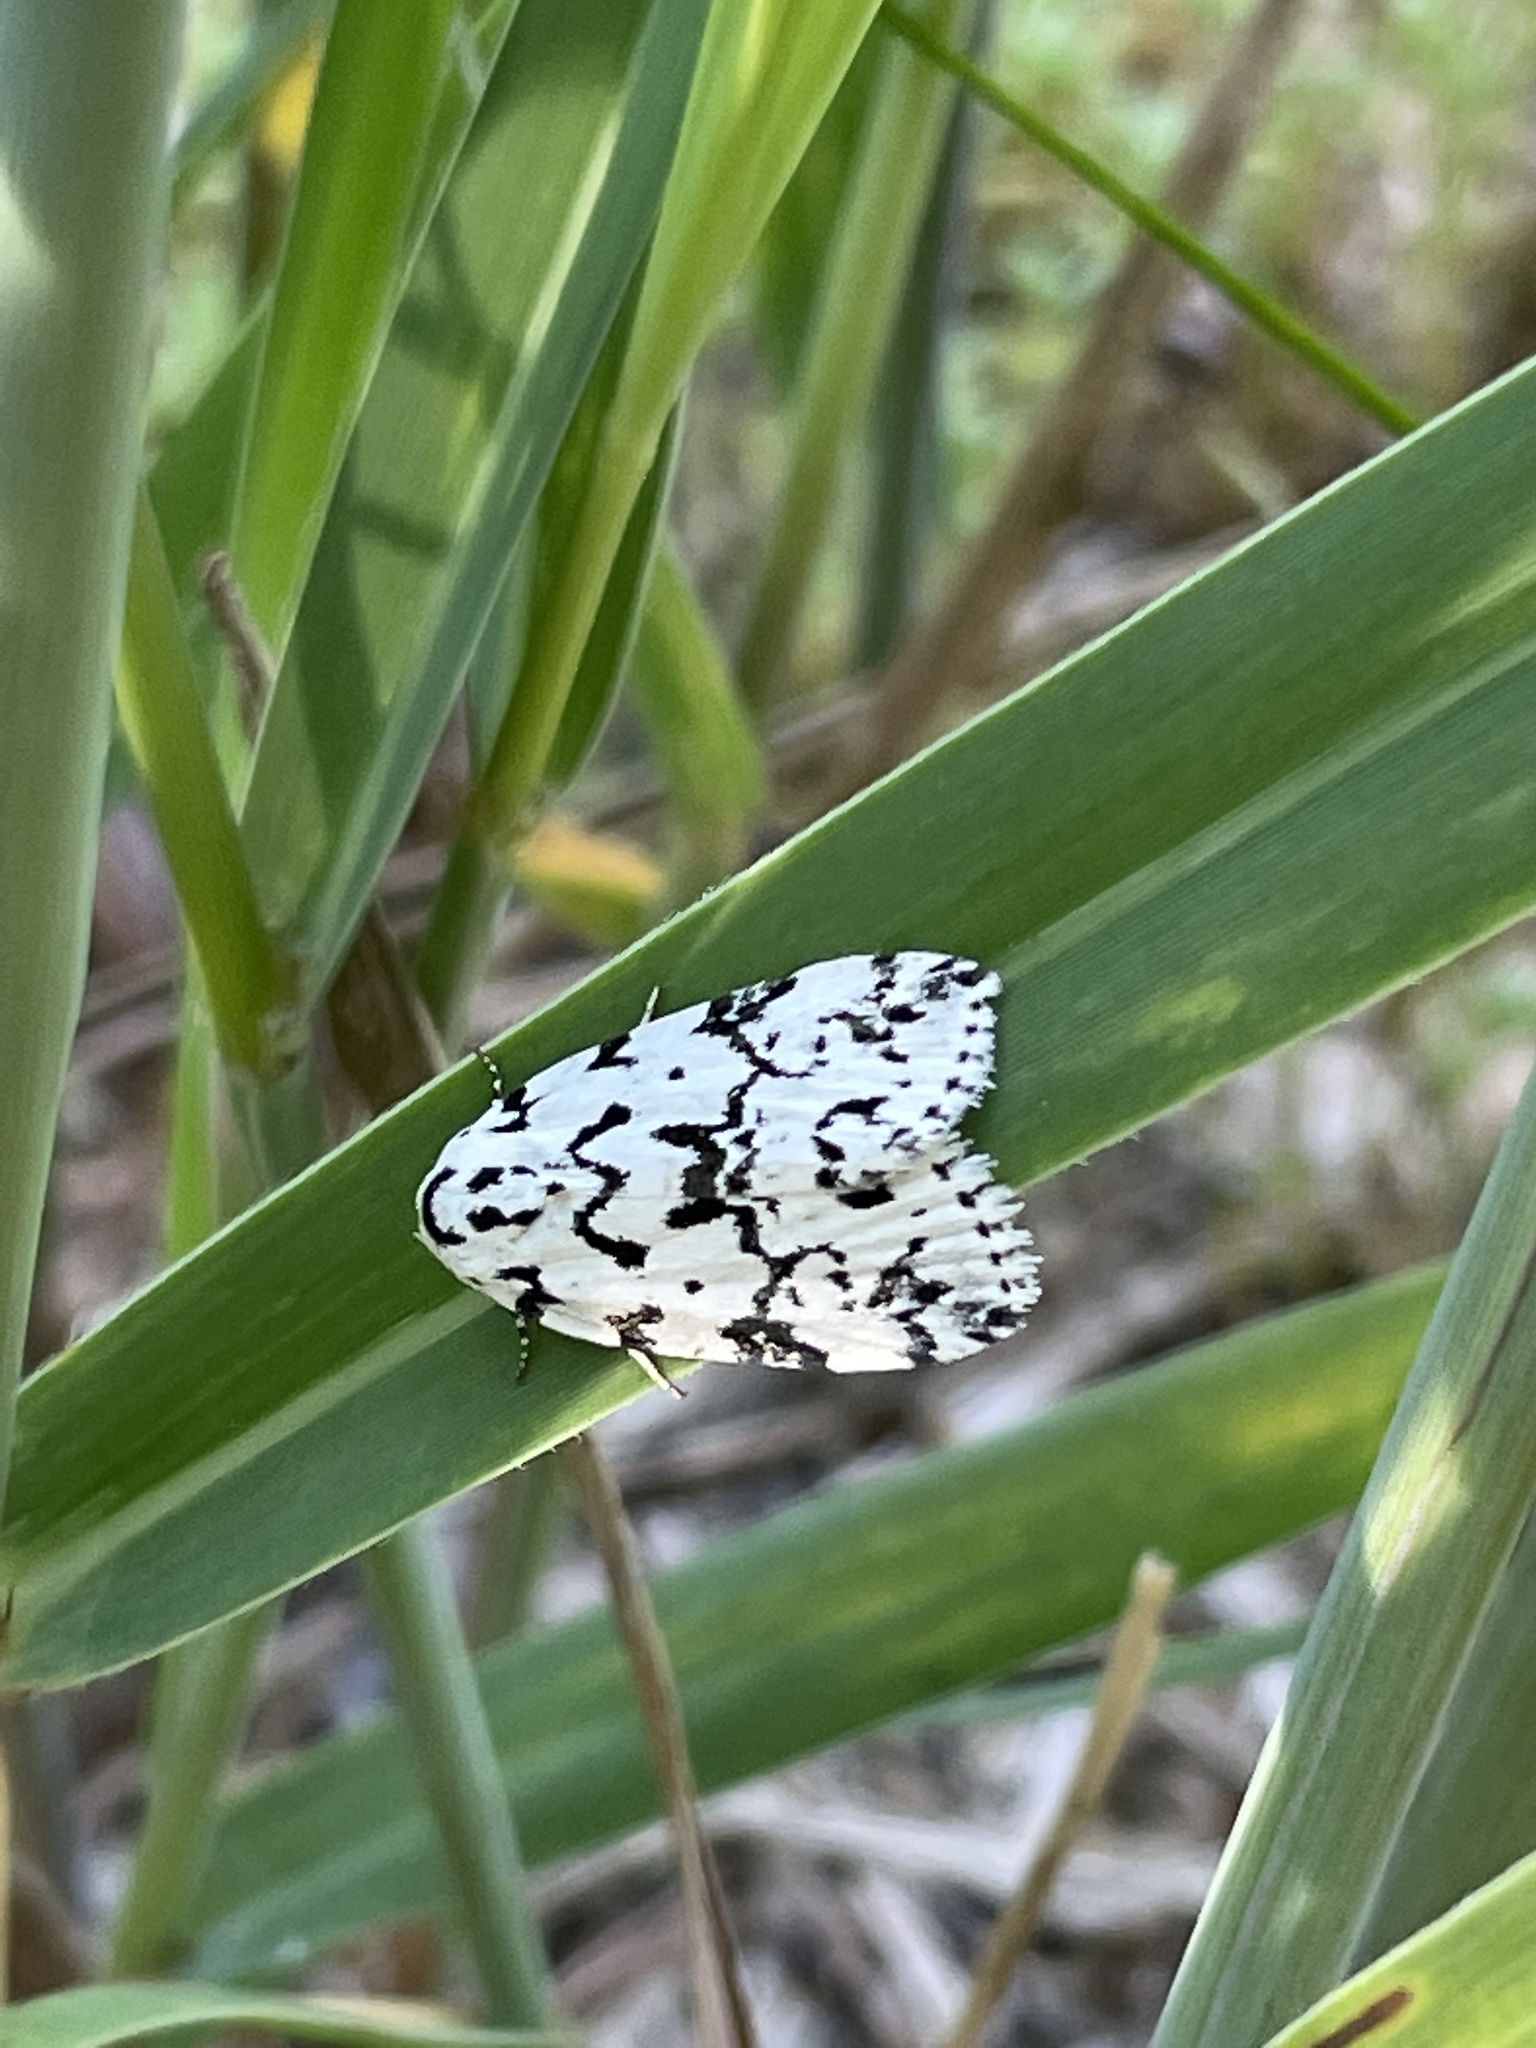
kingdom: Animalia
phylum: Arthropoda
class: Insecta
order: Lepidoptera
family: Noctuidae
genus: Polygrammate
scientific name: Polygrammate hebraeicum
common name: Hebrew moth
